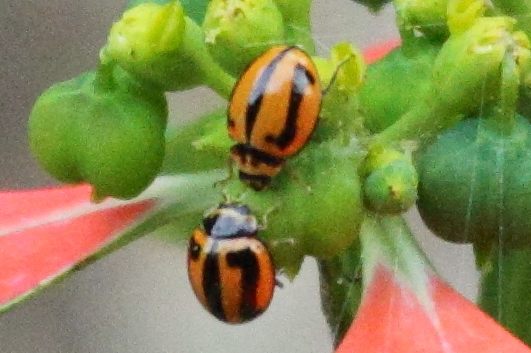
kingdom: Animalia
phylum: Arthropoda
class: Insecta
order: Coleoptera
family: Coccinellidae
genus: Micraspis
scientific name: Micraspis frenata
